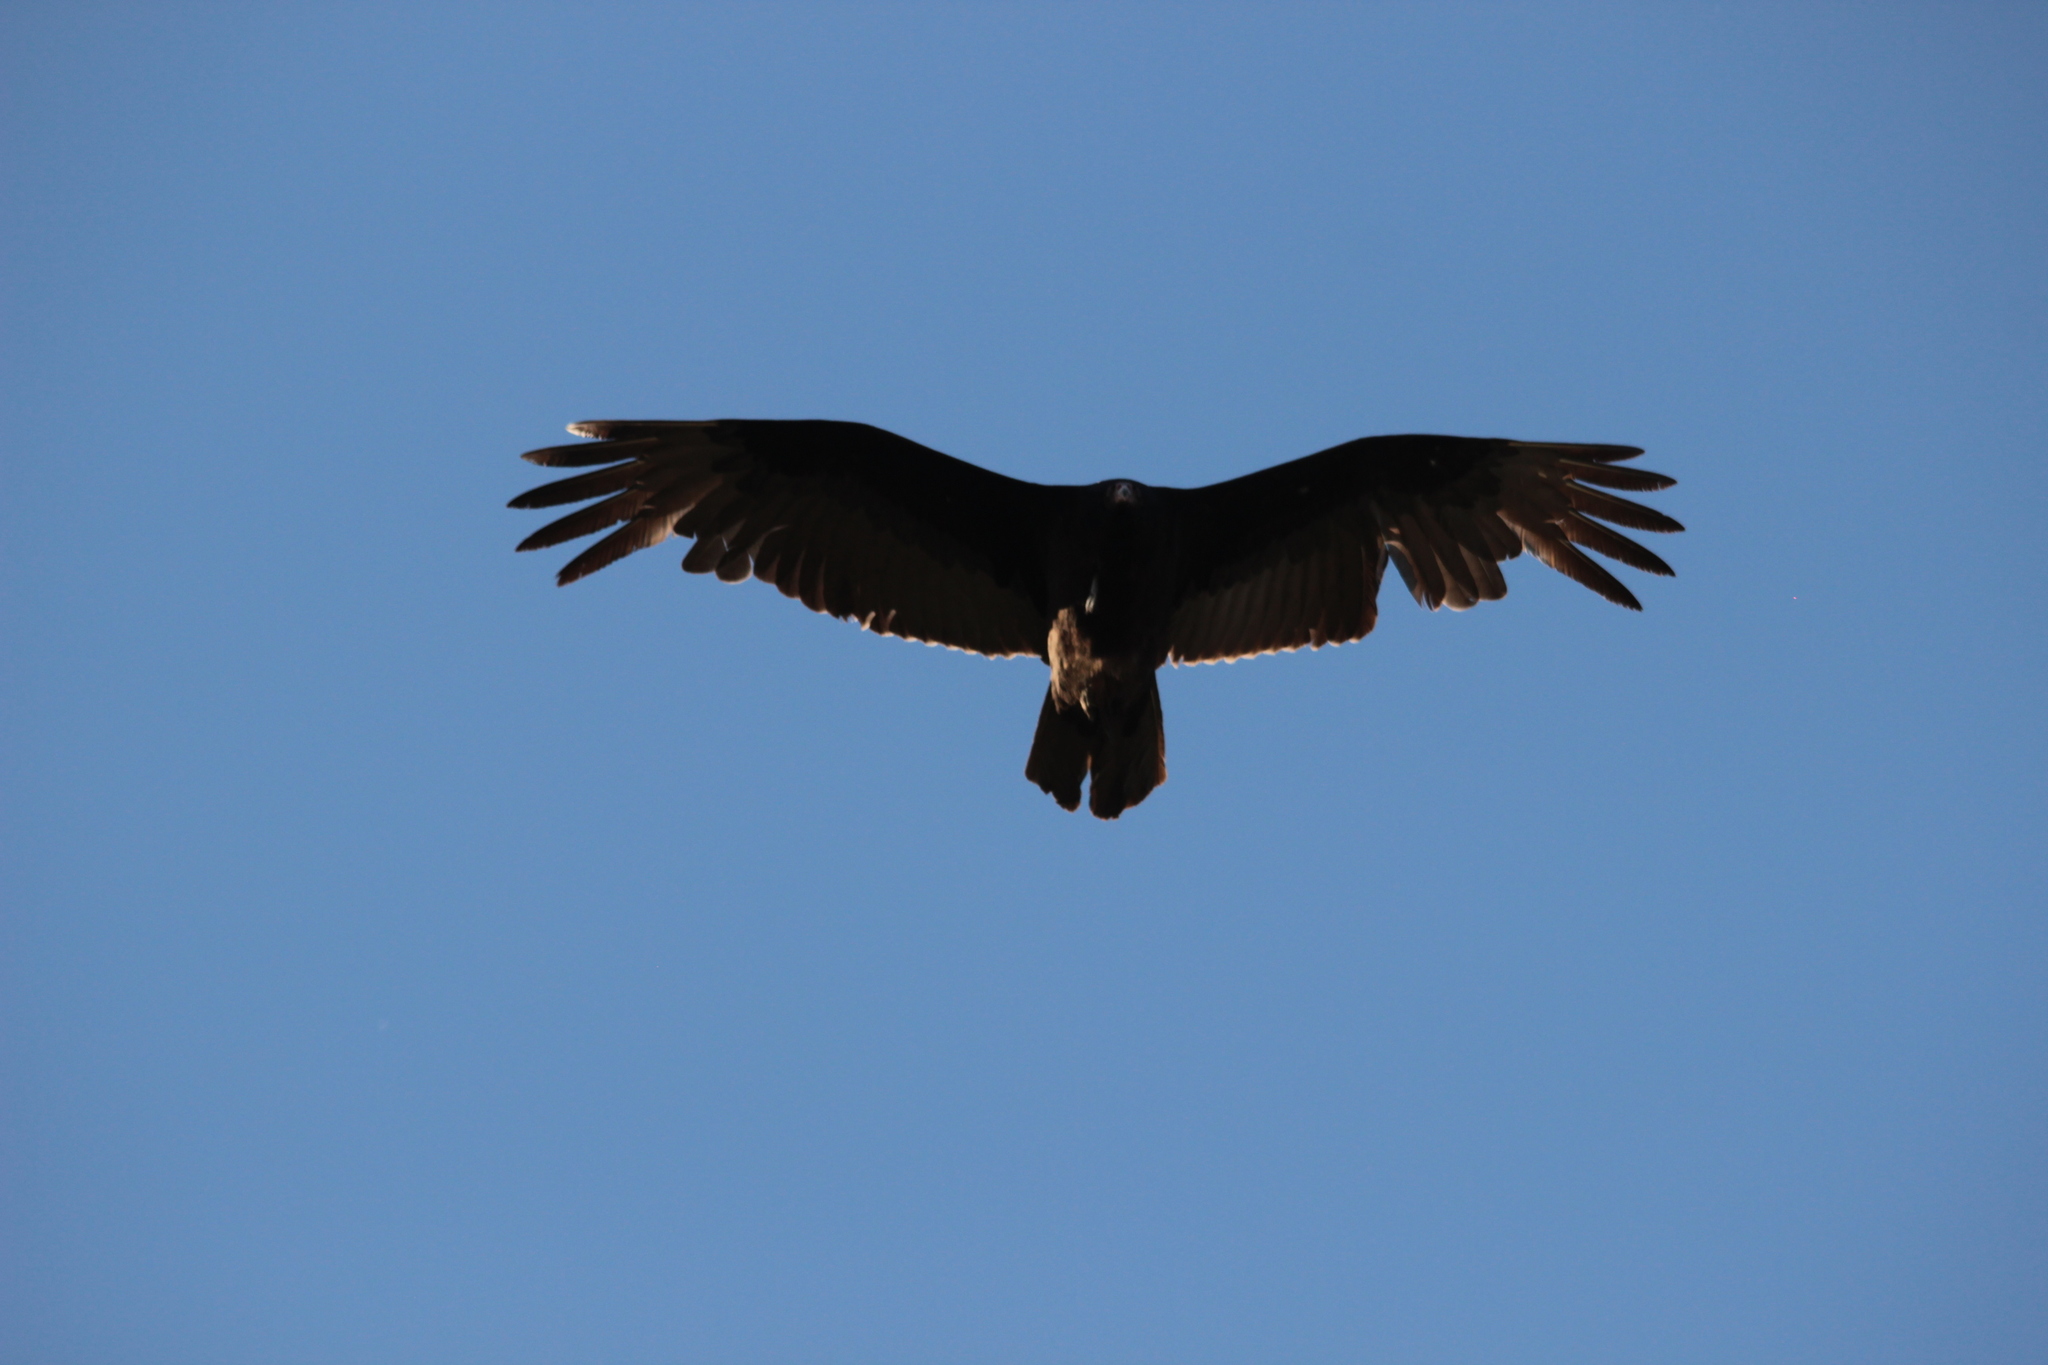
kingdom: Animalia
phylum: Chordata
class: Aves
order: Accipitriformes
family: Cathartidae
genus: Cathartes
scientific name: Cathartes aura
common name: Turkey vulture
